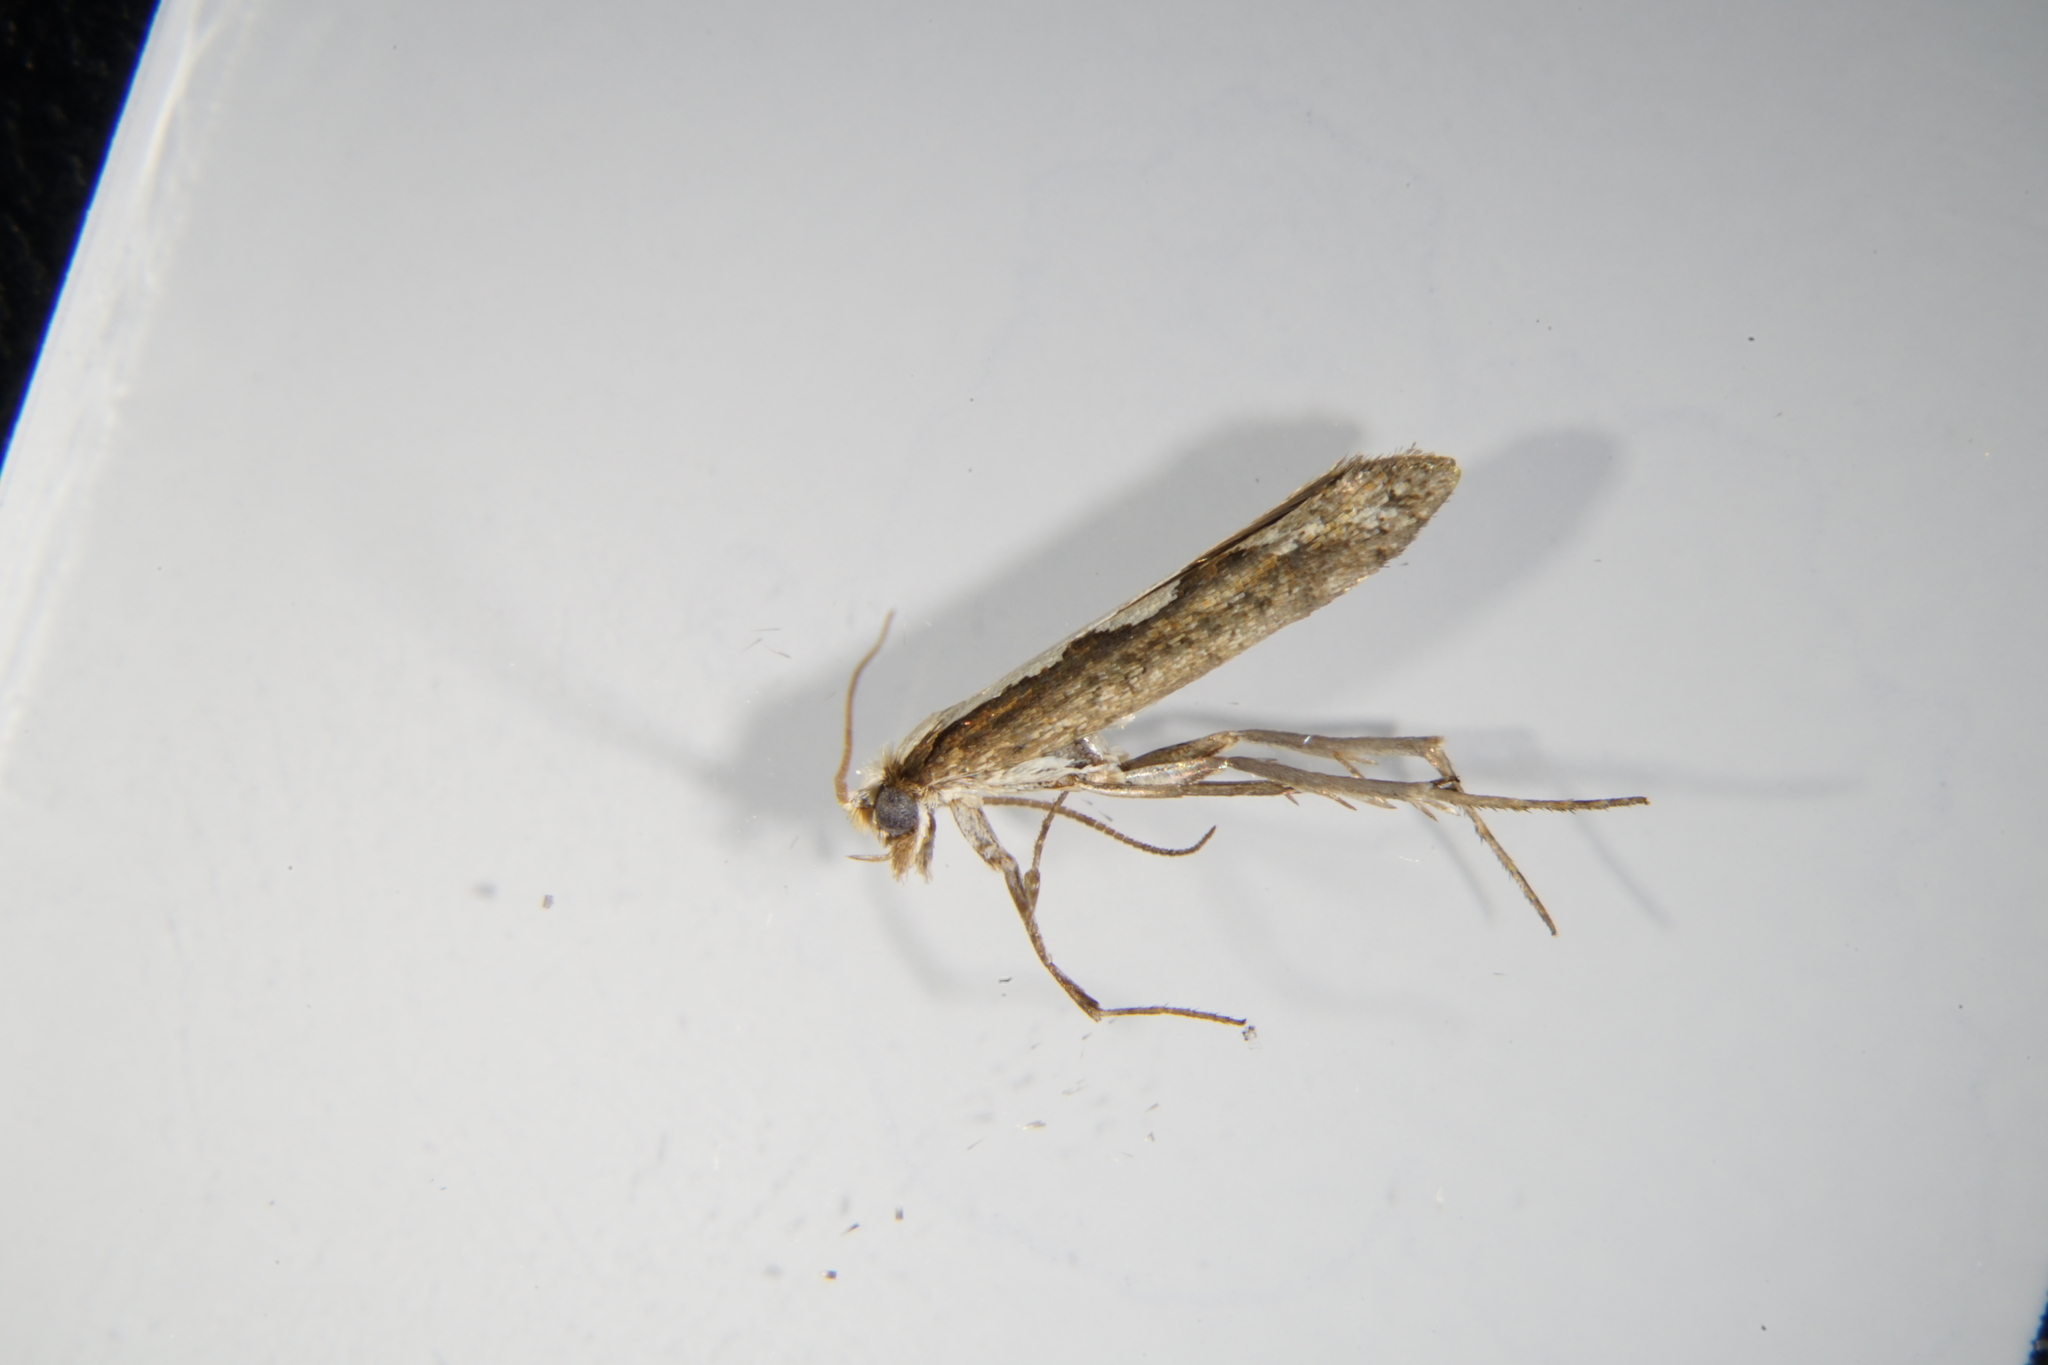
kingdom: Animalia
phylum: Arthropoda
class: Insecta
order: Lepidoptera
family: Plutellidae
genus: Plutella
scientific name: Plutella xylostella
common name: Diamond-back moth
